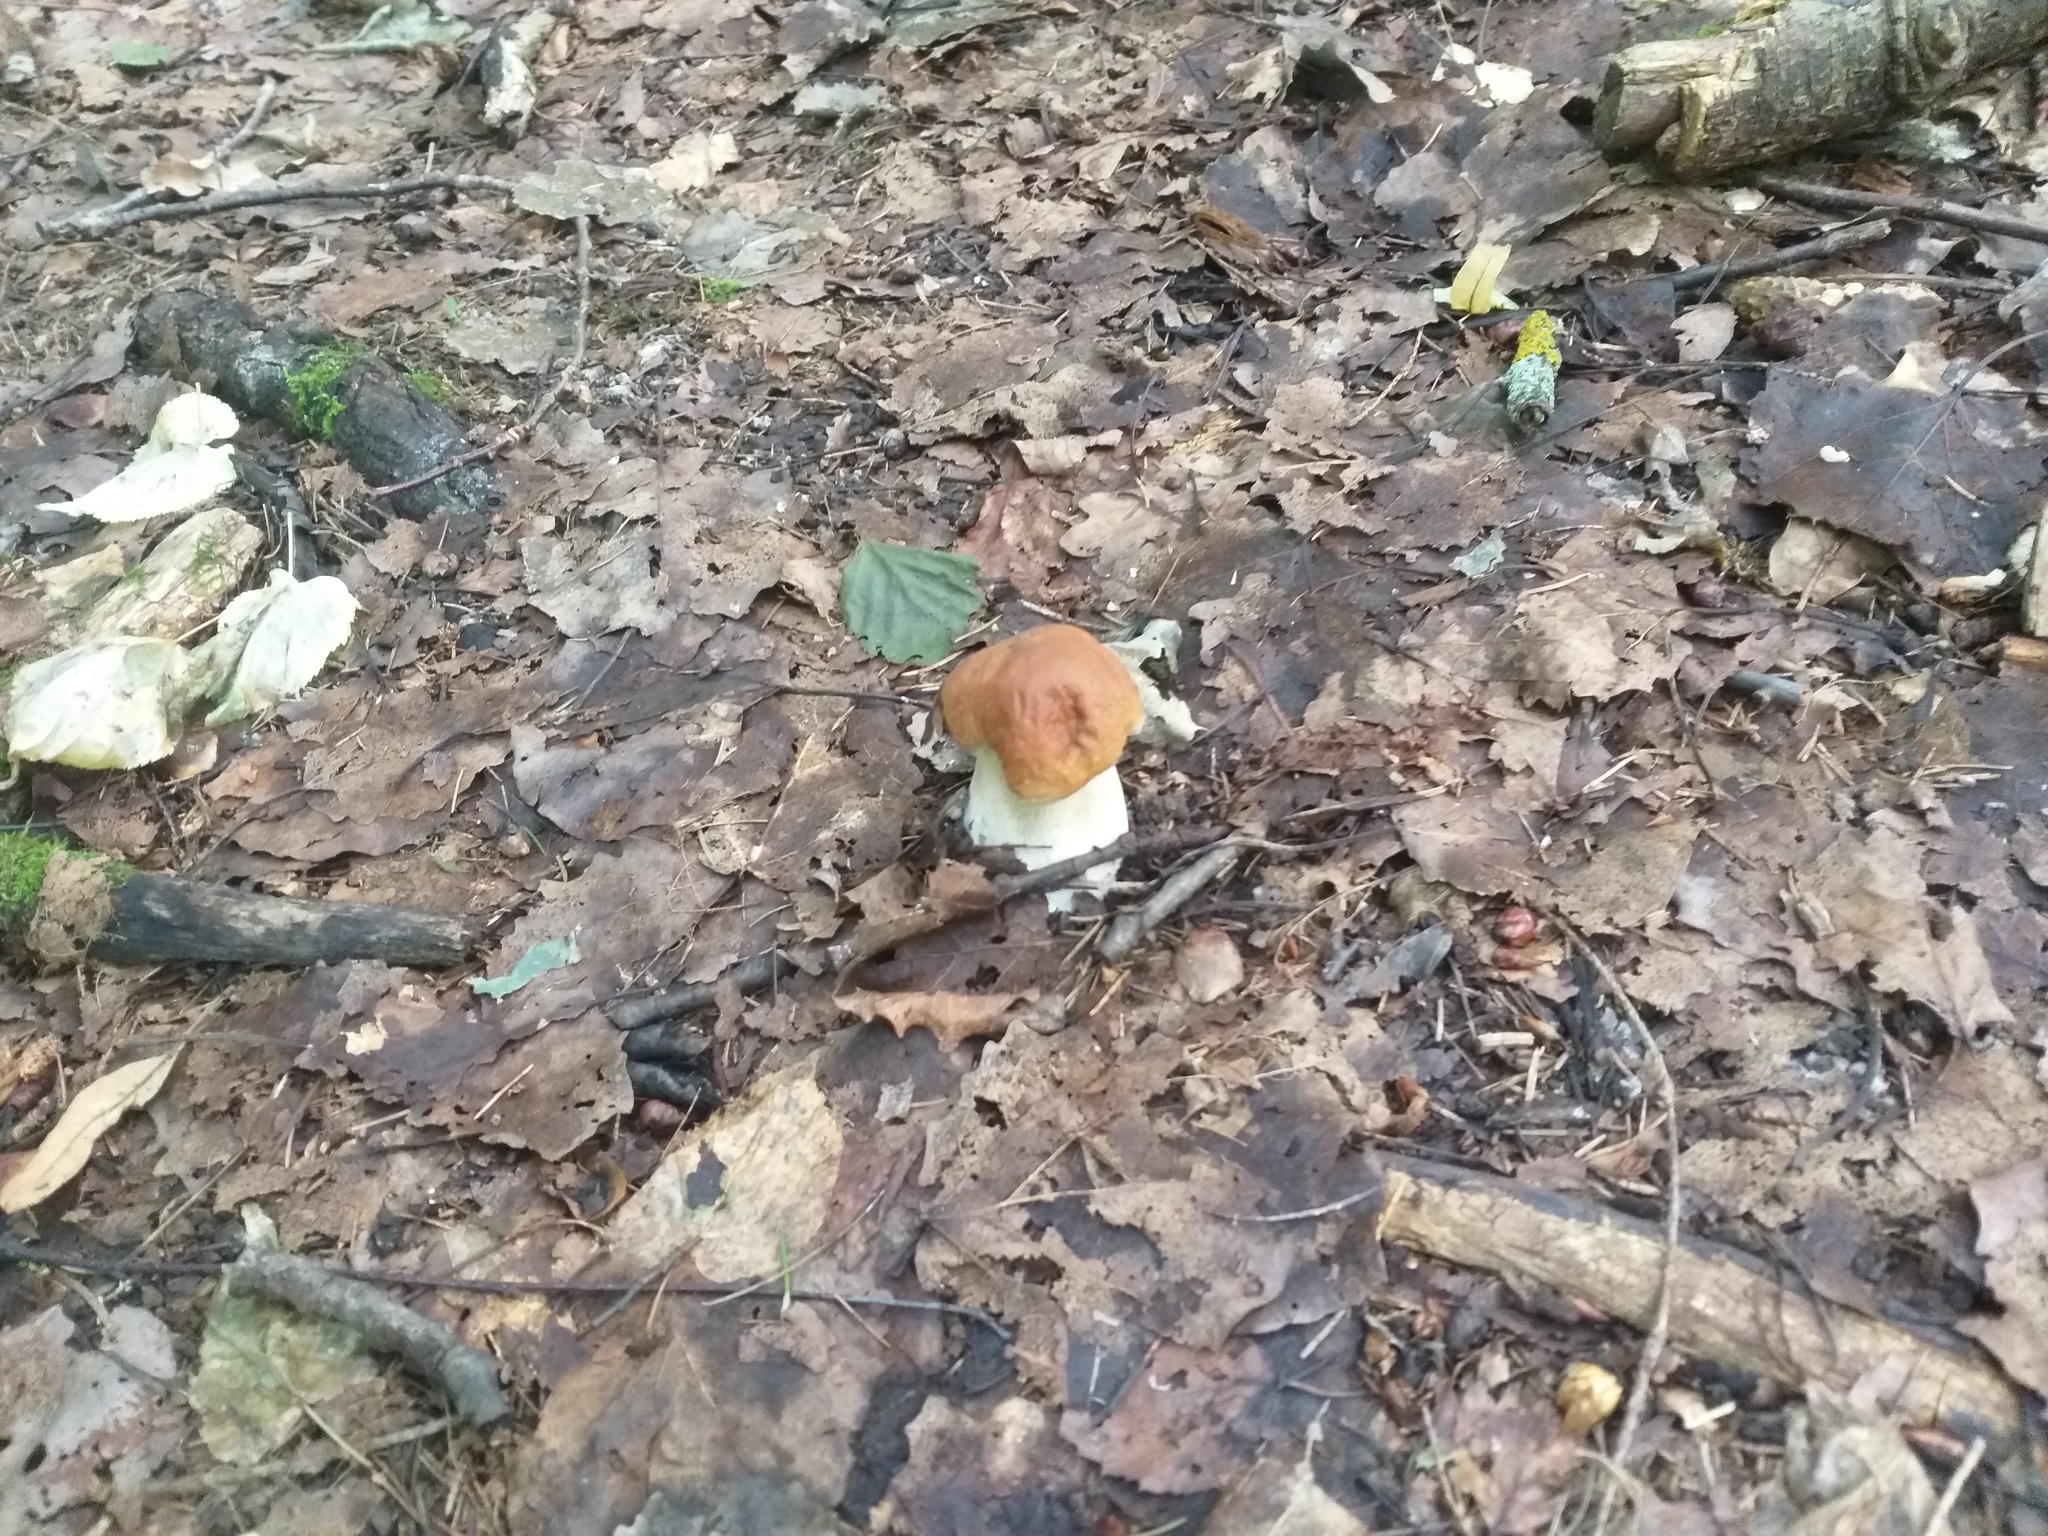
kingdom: Fungi
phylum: Basidiomycota
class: Agaricomycetes
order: Boletales
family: Boletaceae
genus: Boletus
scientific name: Boletus edulis
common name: Cep
